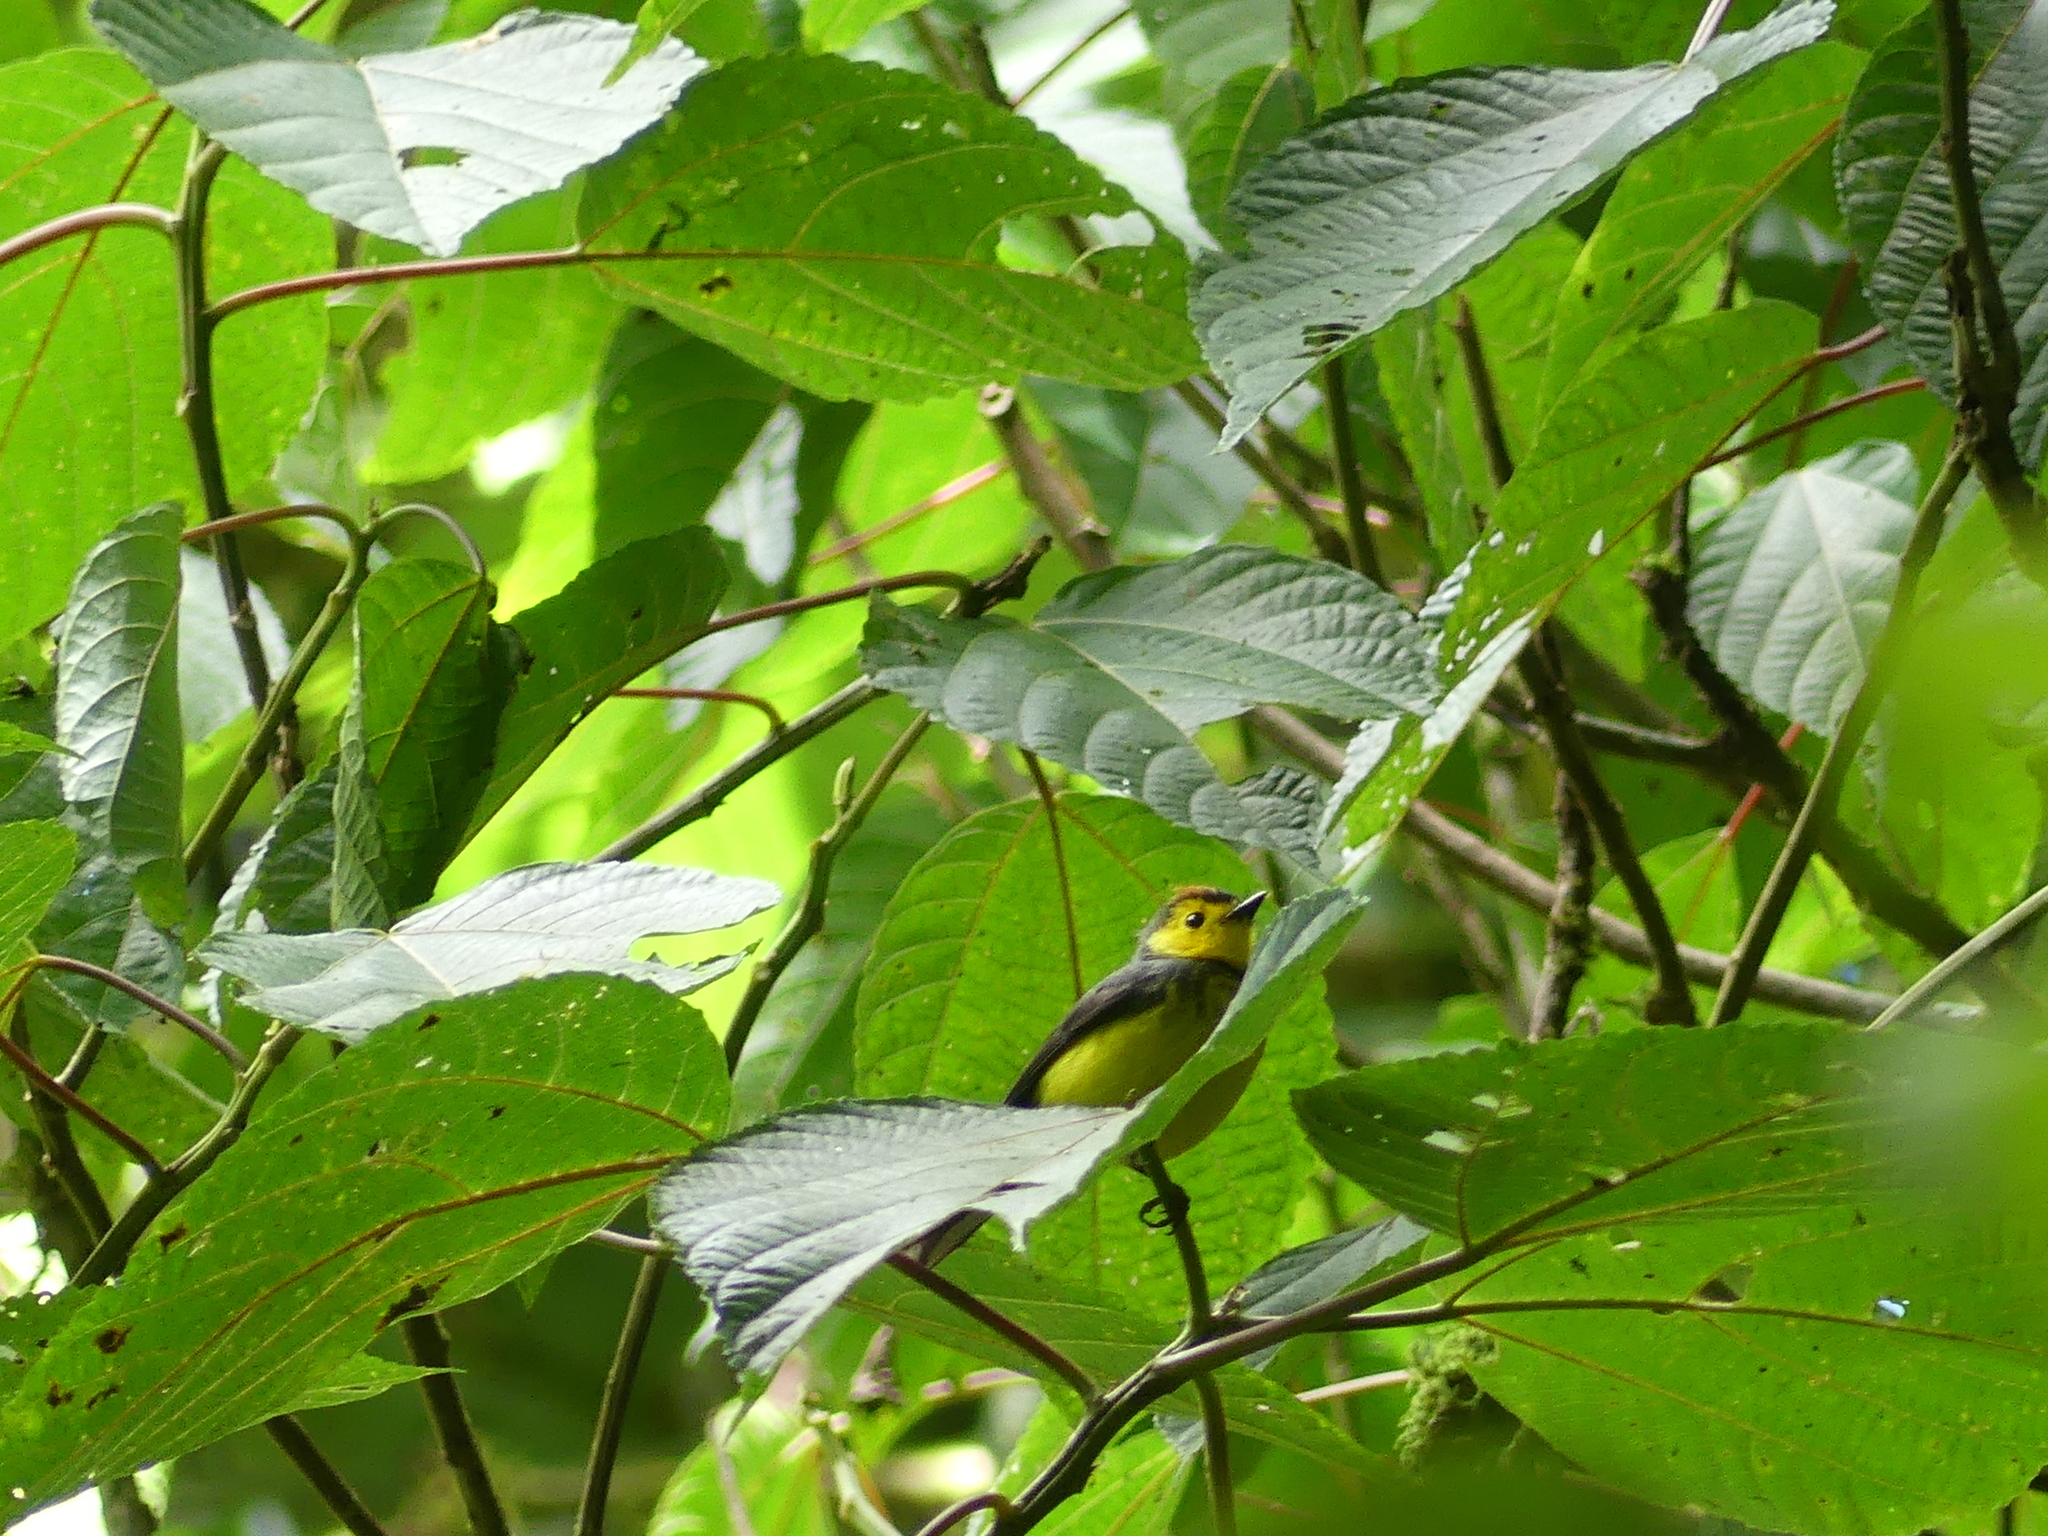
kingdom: Animalia
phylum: Chordata
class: Aves
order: Passeriformes
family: Parulidae
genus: Myioborus
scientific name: Myioborus torquatus
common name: Collared whitestart
